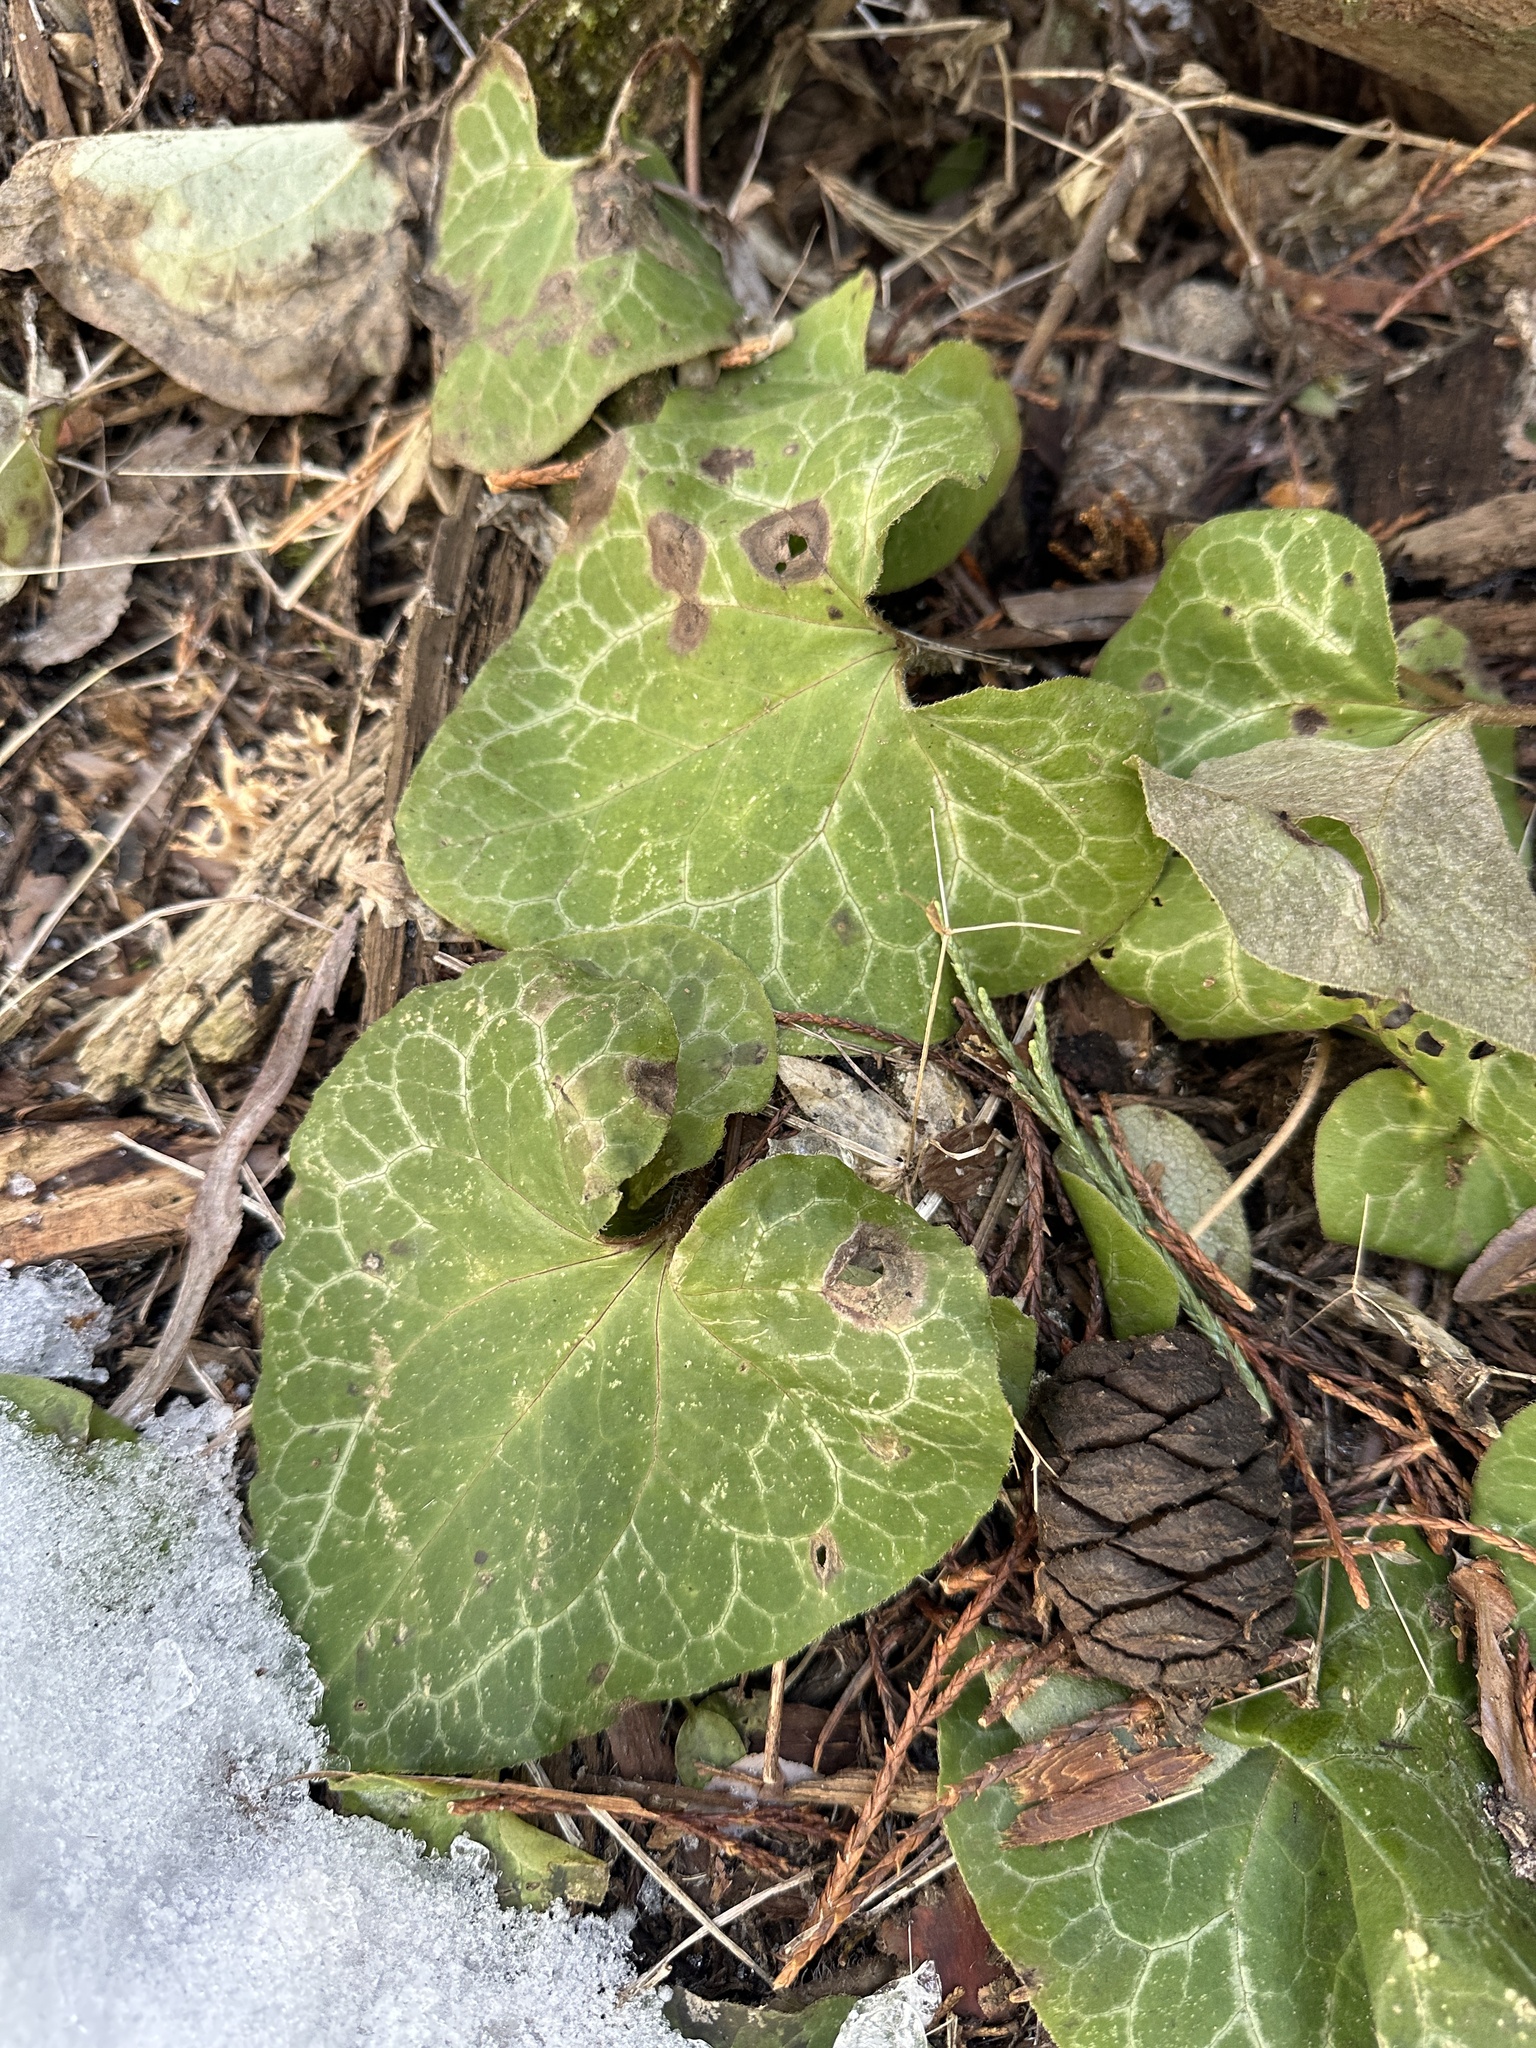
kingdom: Plantae
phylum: Tracheophyta
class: Magnoliopsida
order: Piperales
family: Aristolochiaceae
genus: Asarum
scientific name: Asarum hartwegii
